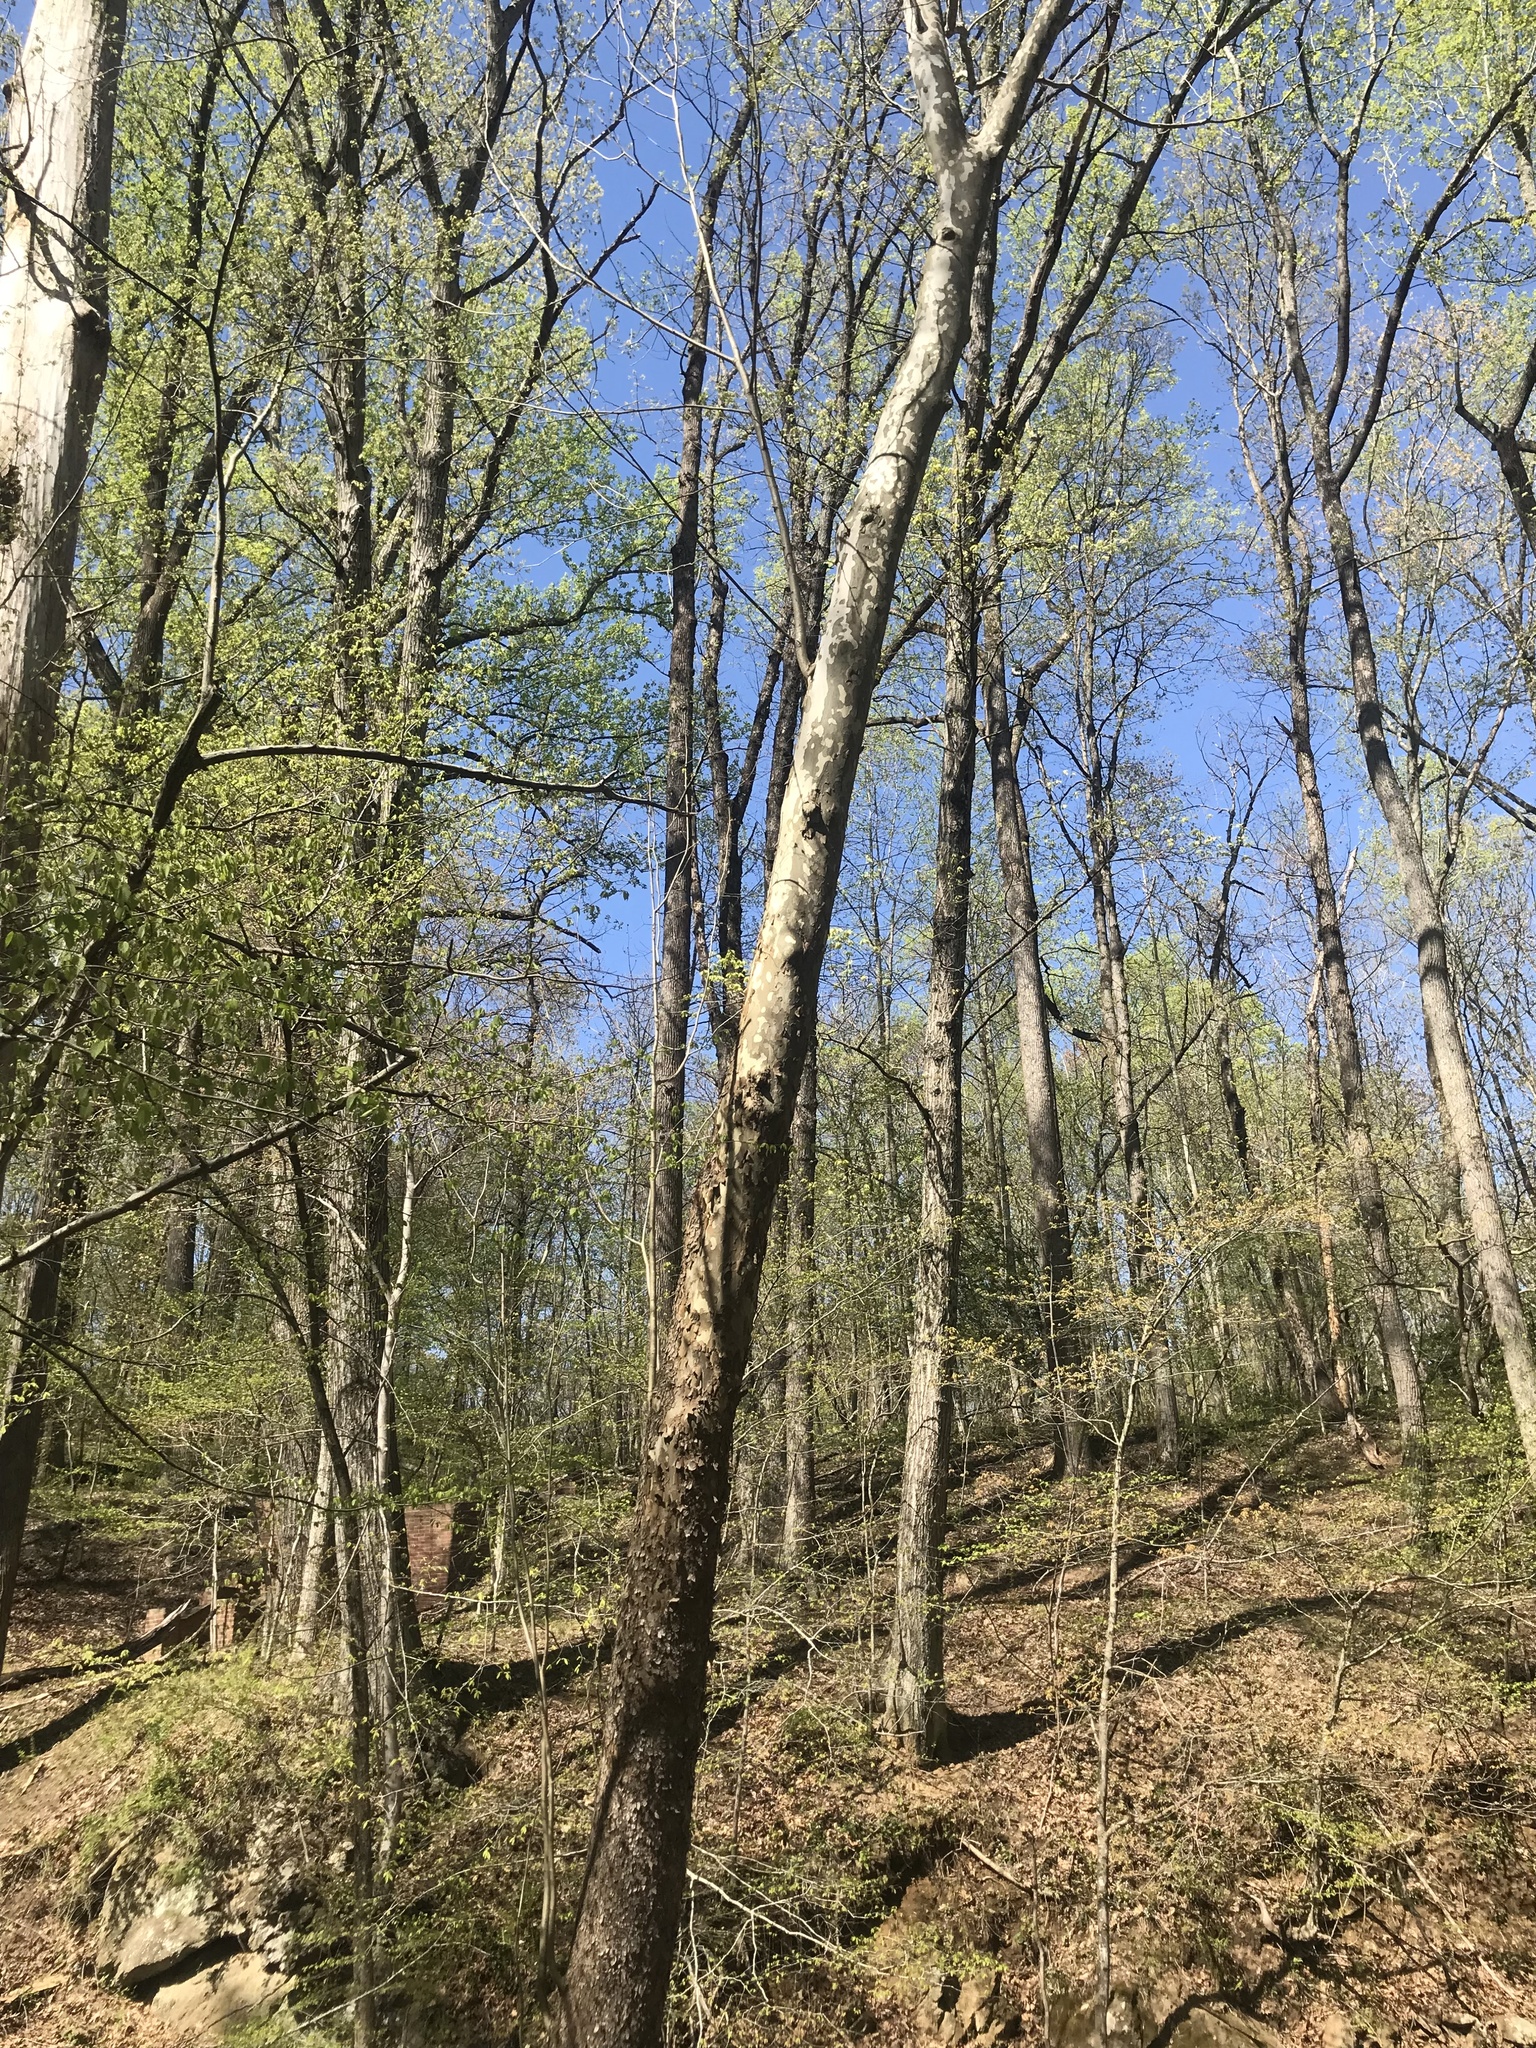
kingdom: Plantae
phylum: Tracheophyta
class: Magnoliopsida
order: Proteales
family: Platanaceae
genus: Platanus
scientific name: Platanus occidentalis
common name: American sycamore
